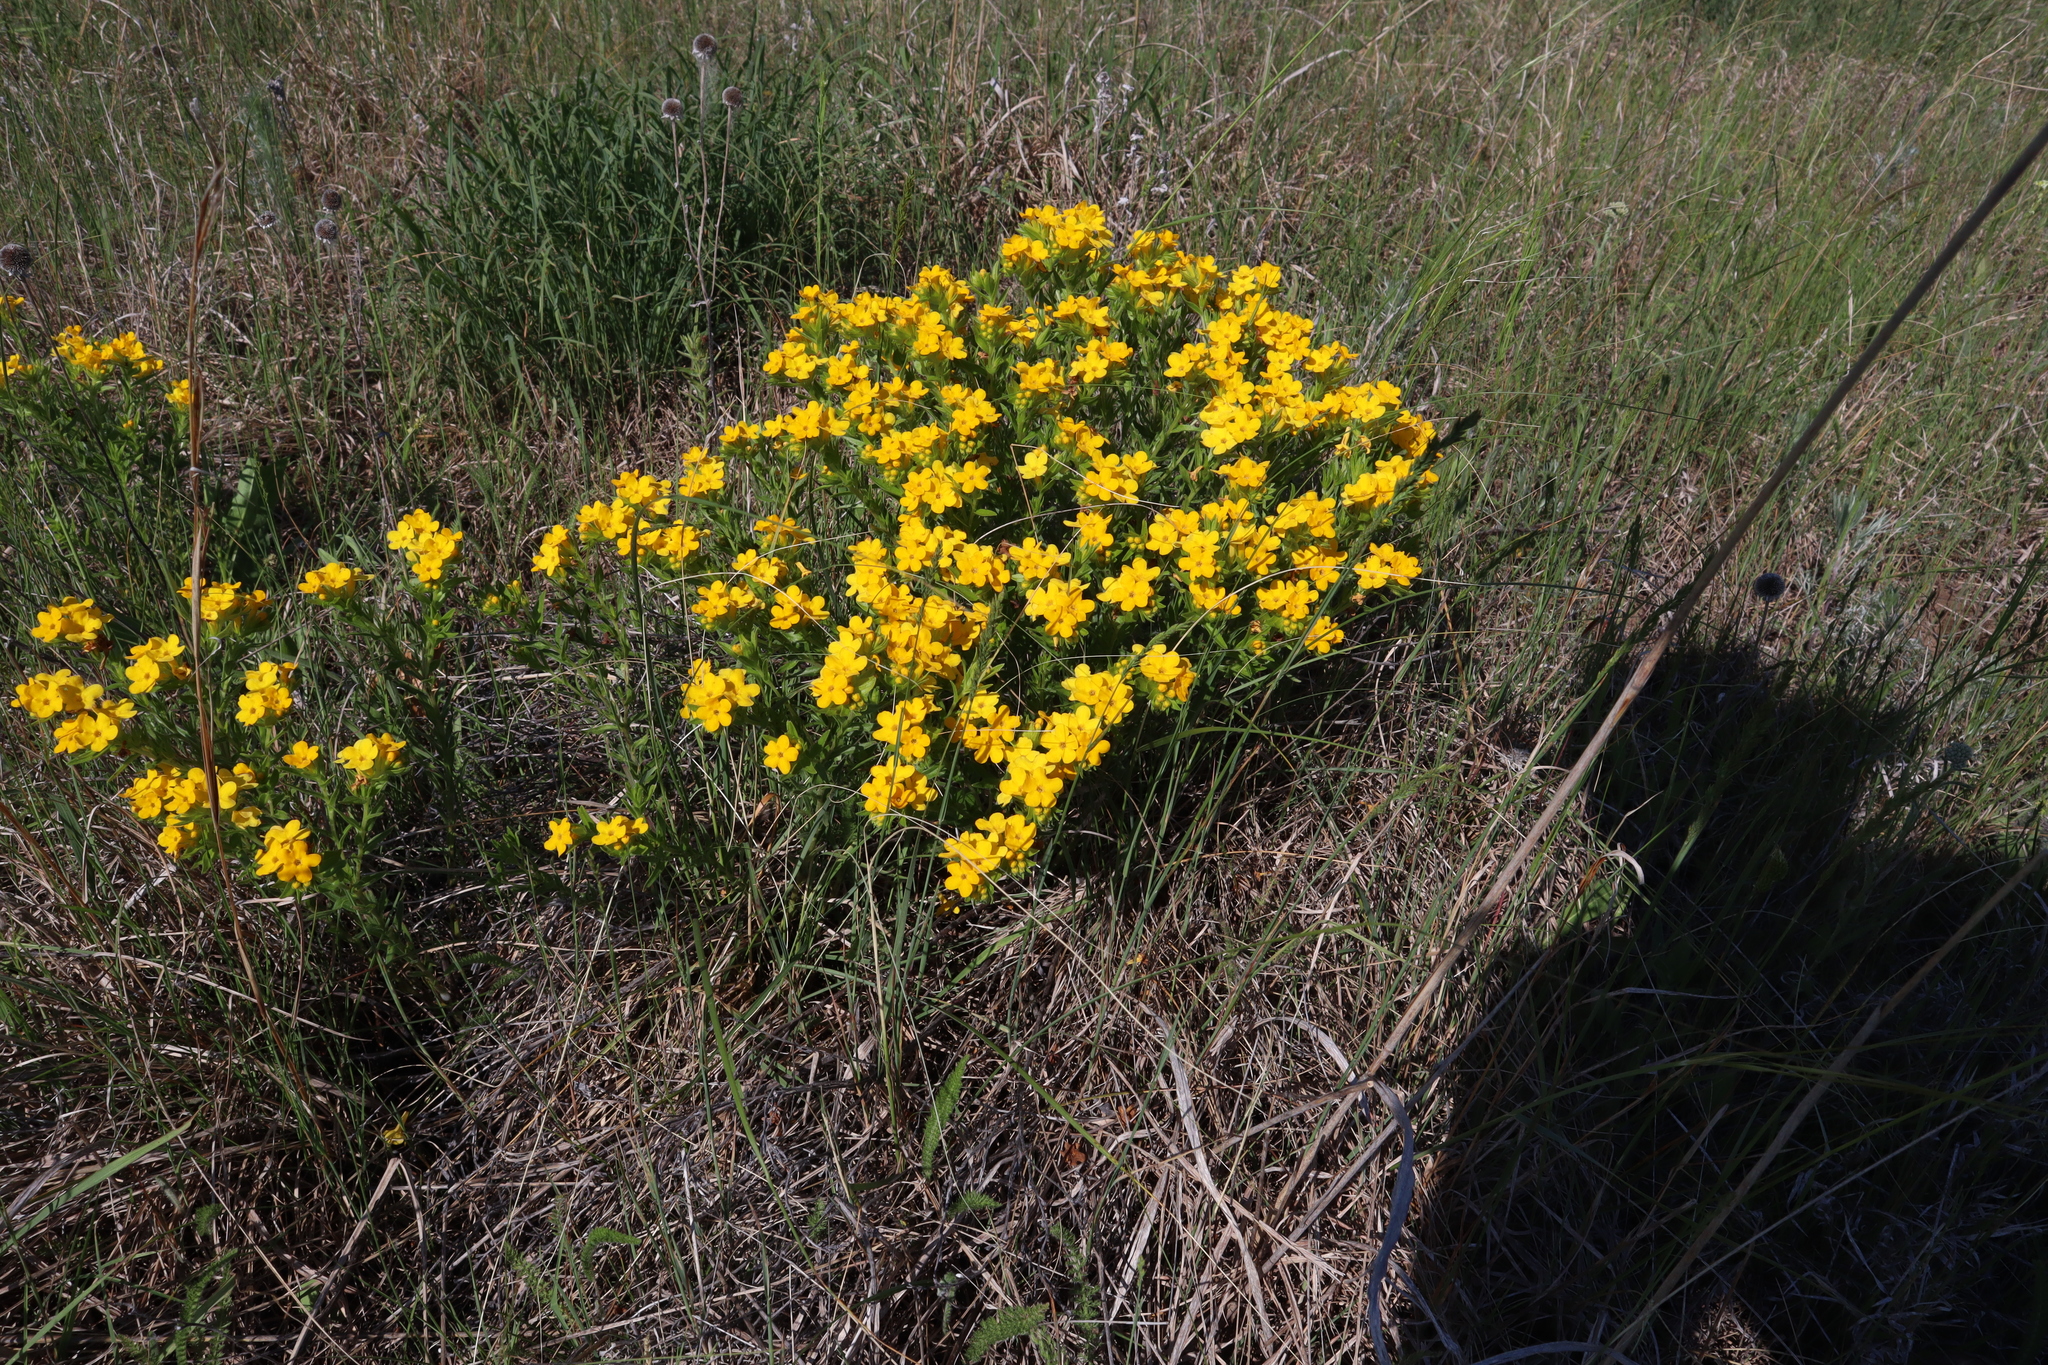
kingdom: Plantae
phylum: Tracheophyta
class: Magnoliopsida
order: Boraginales
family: Boraginaceae
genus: Lithospermum
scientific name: Lithospermum caroliniense
